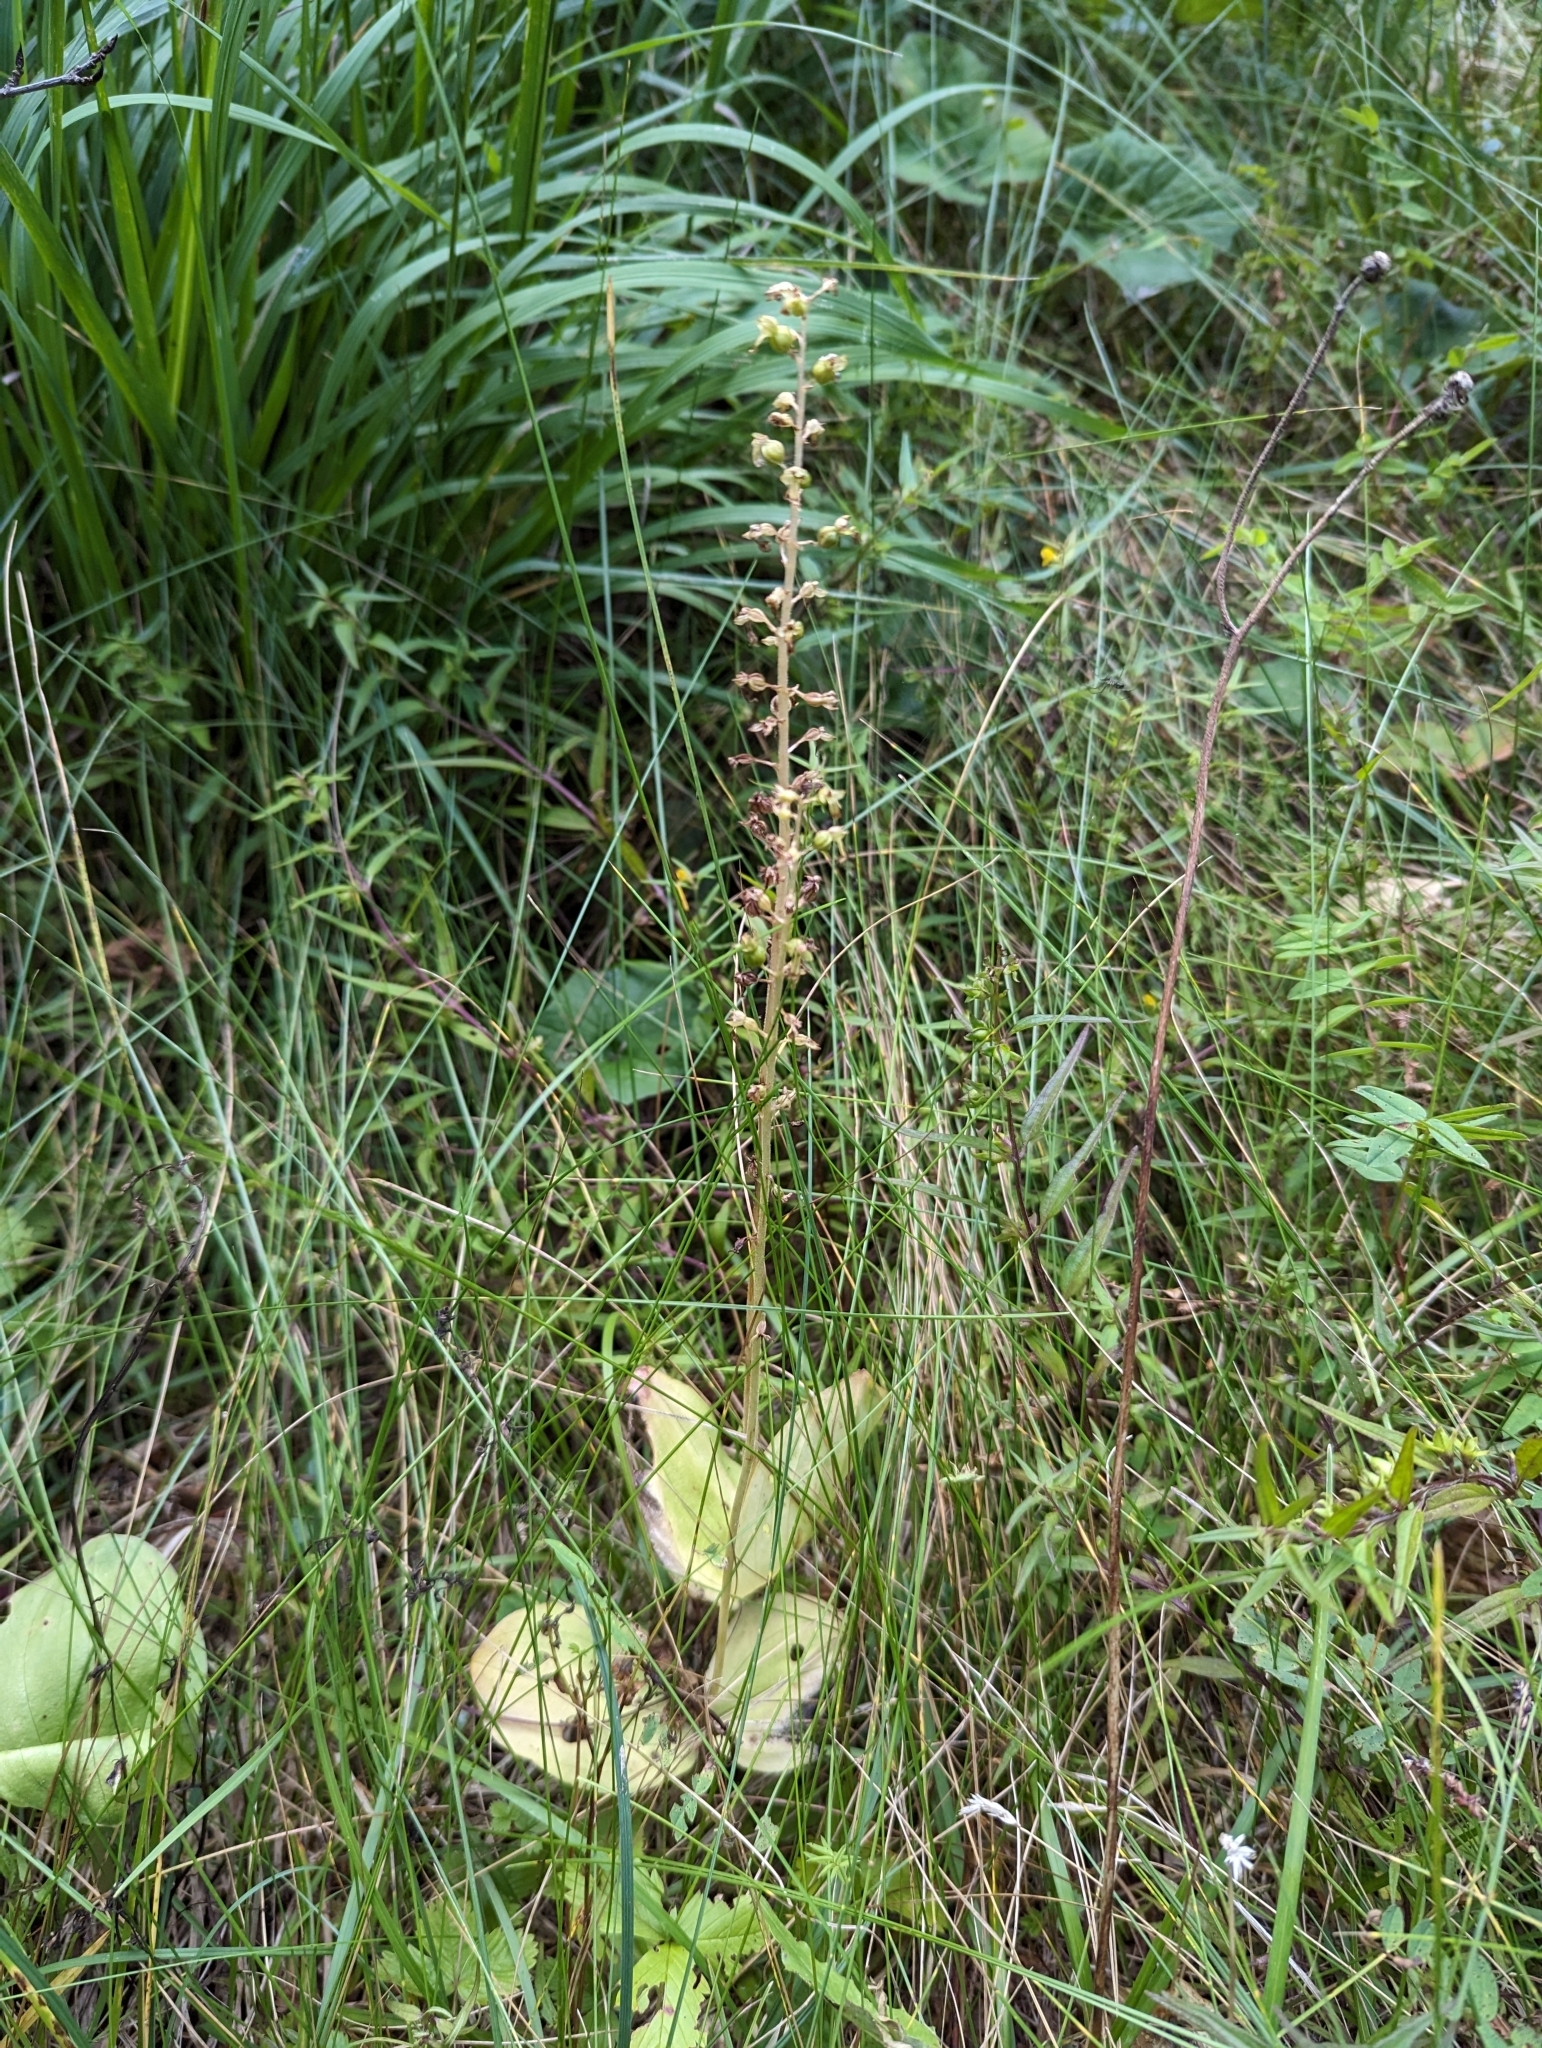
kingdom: Plantae
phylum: Tracheophyta
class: Liliopsida
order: Asparagales
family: Orchidaceae
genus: Neottia
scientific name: Neottia ovata
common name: Common twayblade
